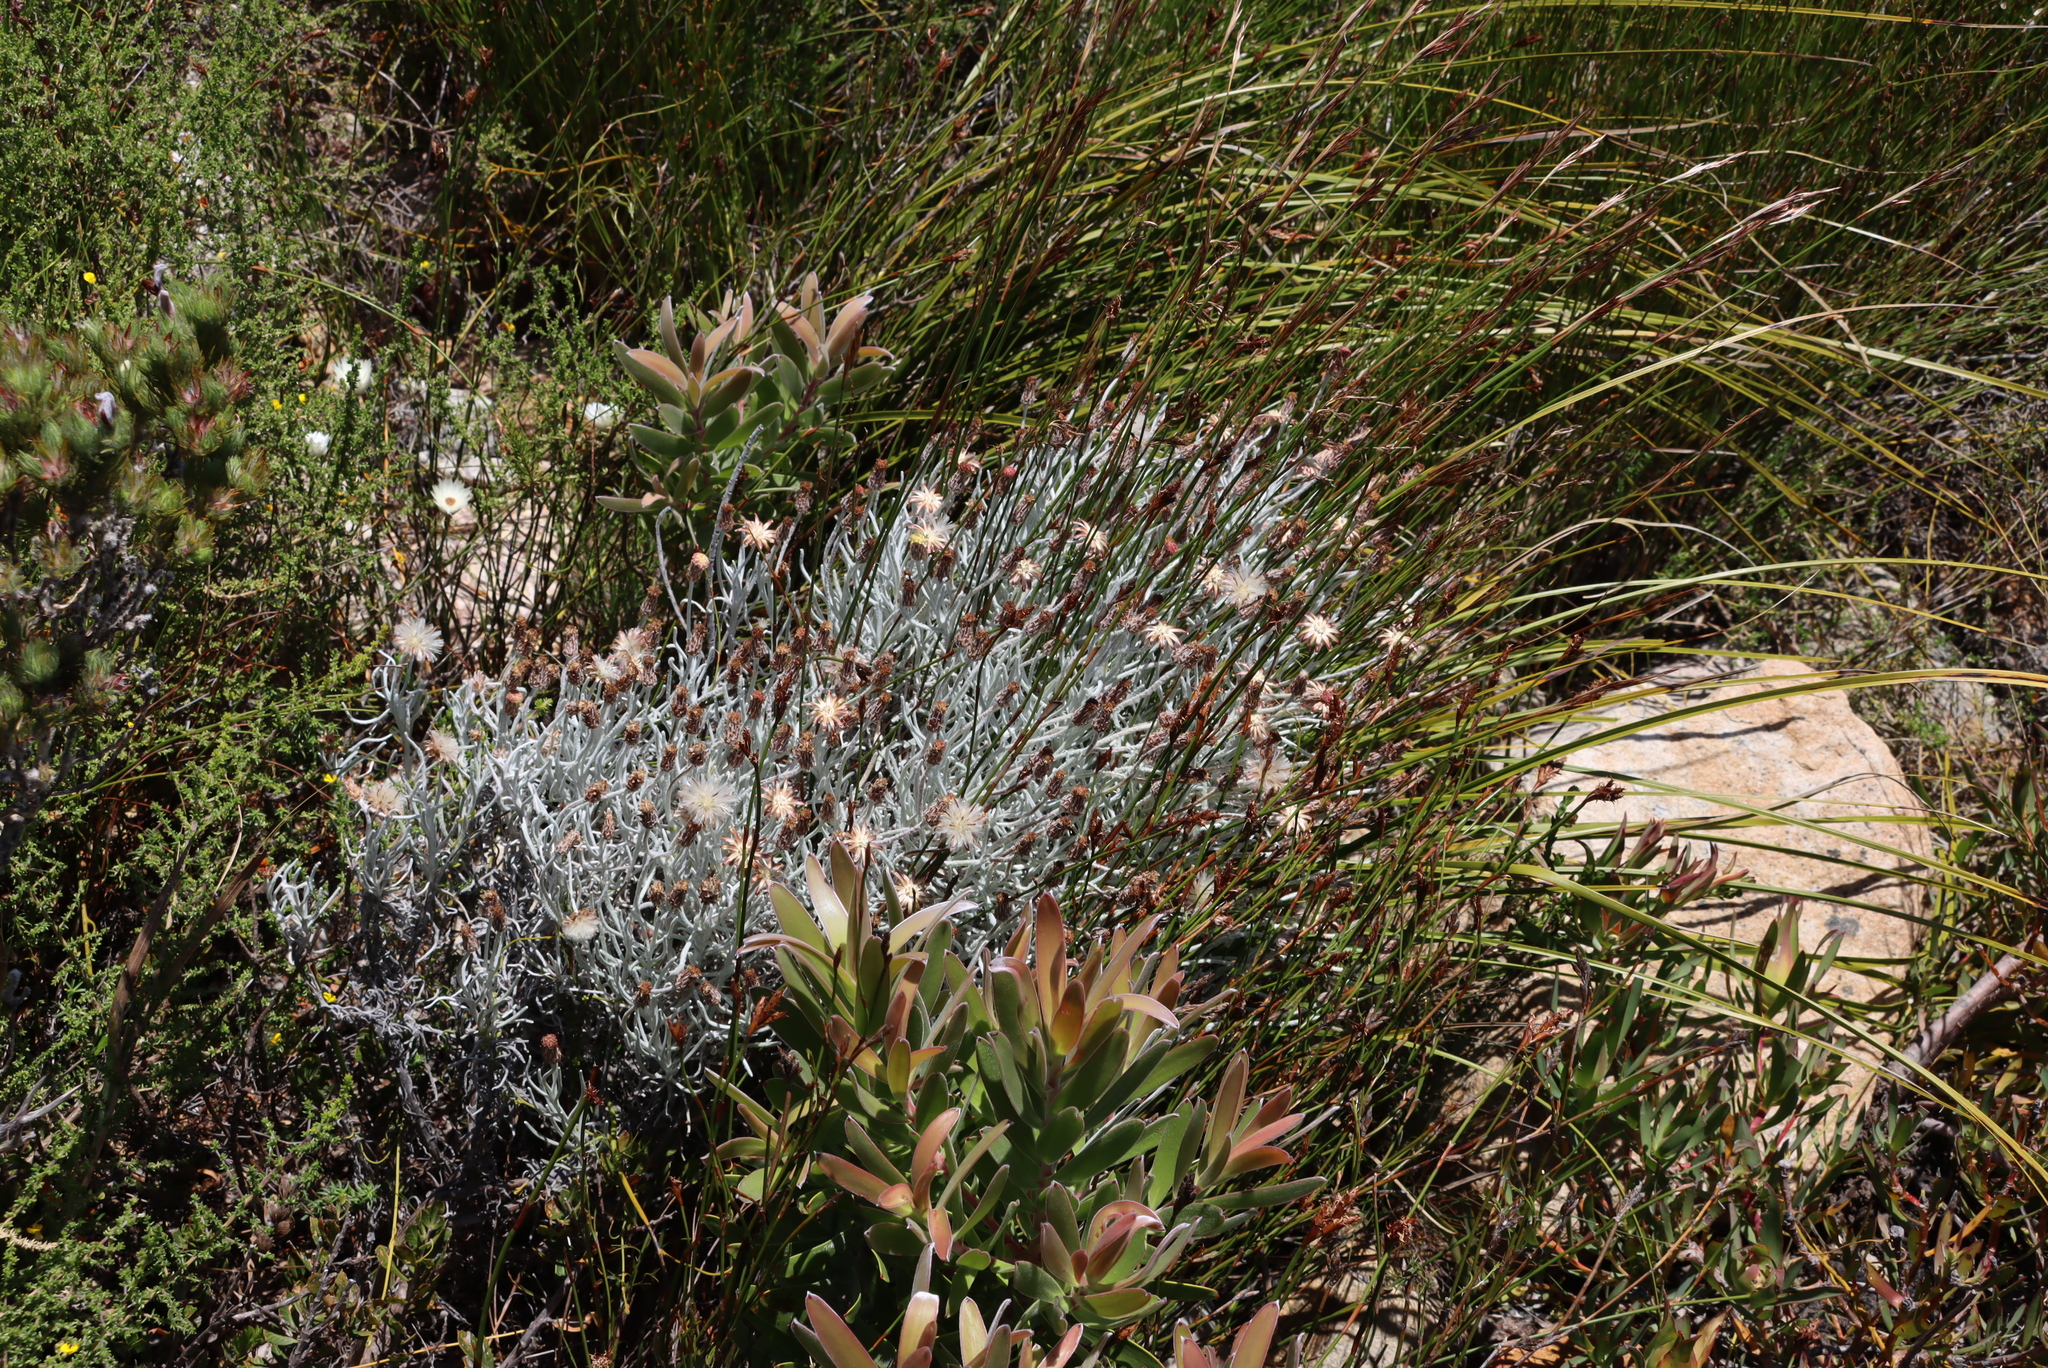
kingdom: Plantae
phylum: Tracheophyta
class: Magnoliopsida
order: Asterales
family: Asteraceae
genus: Syncarpha
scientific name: Syncarpha gnaphaloides
